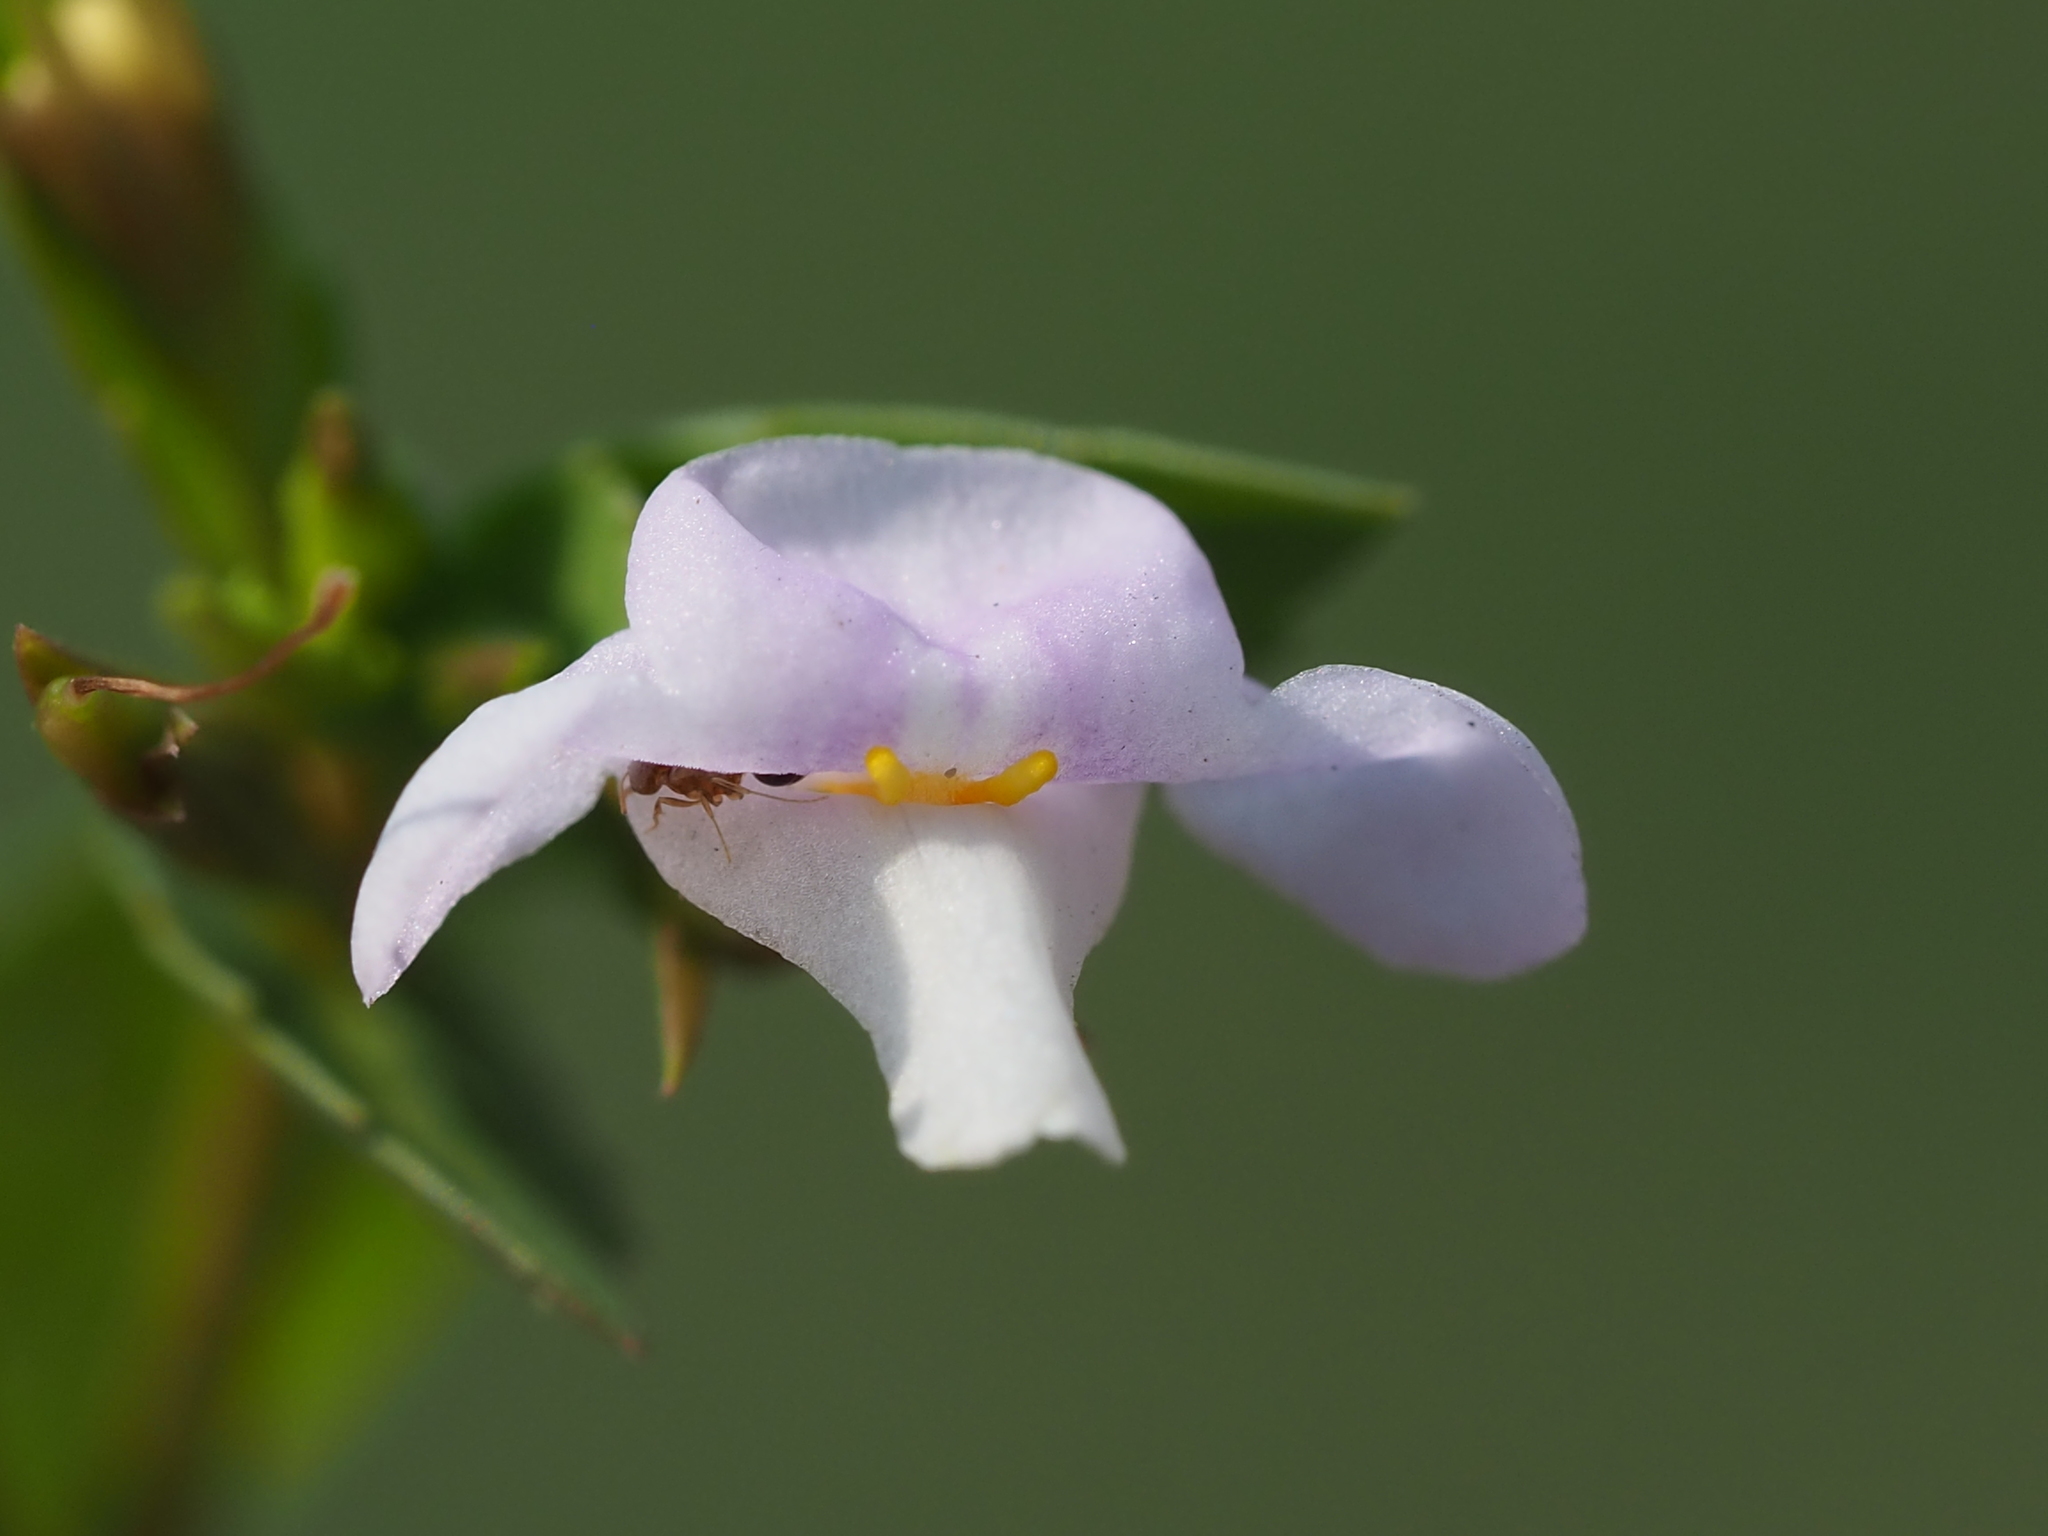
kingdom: Plantae
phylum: Tracheophyta
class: Magnoliopsida
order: Lamiales
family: Linderniaceae
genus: Bonnaya
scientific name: Bonnaya antipoda
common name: Sparrow false pimpernel
